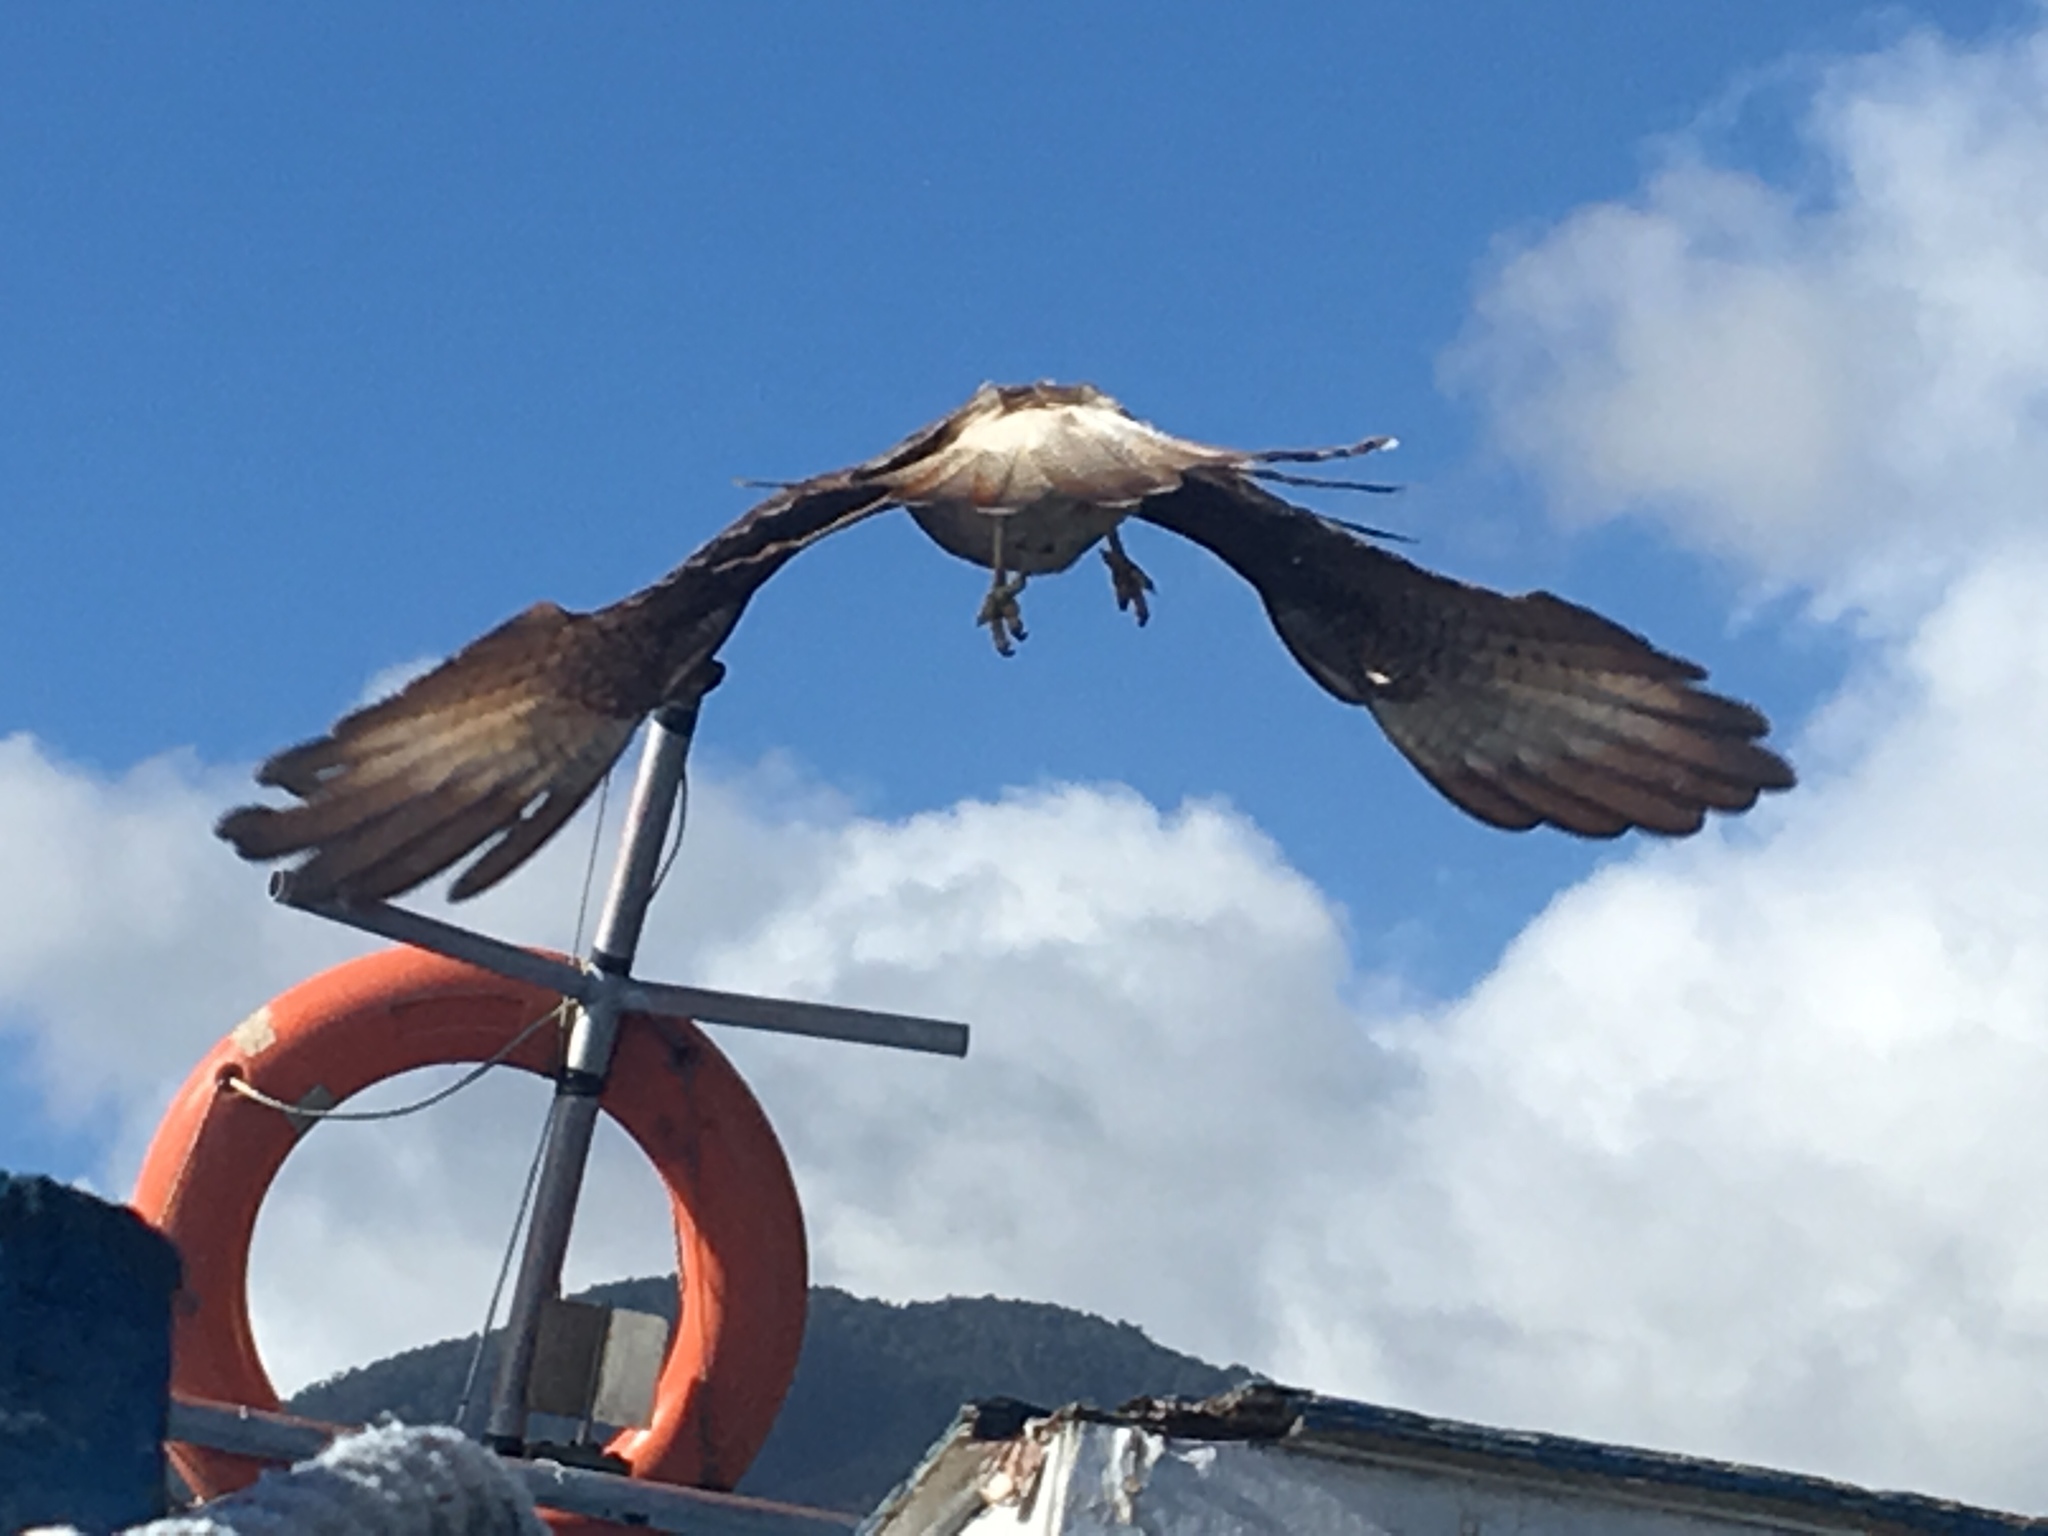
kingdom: Animalia
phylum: Chordata
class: Aves
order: Falconiformes
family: Falconidae
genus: Daptrius
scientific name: Daptrius
